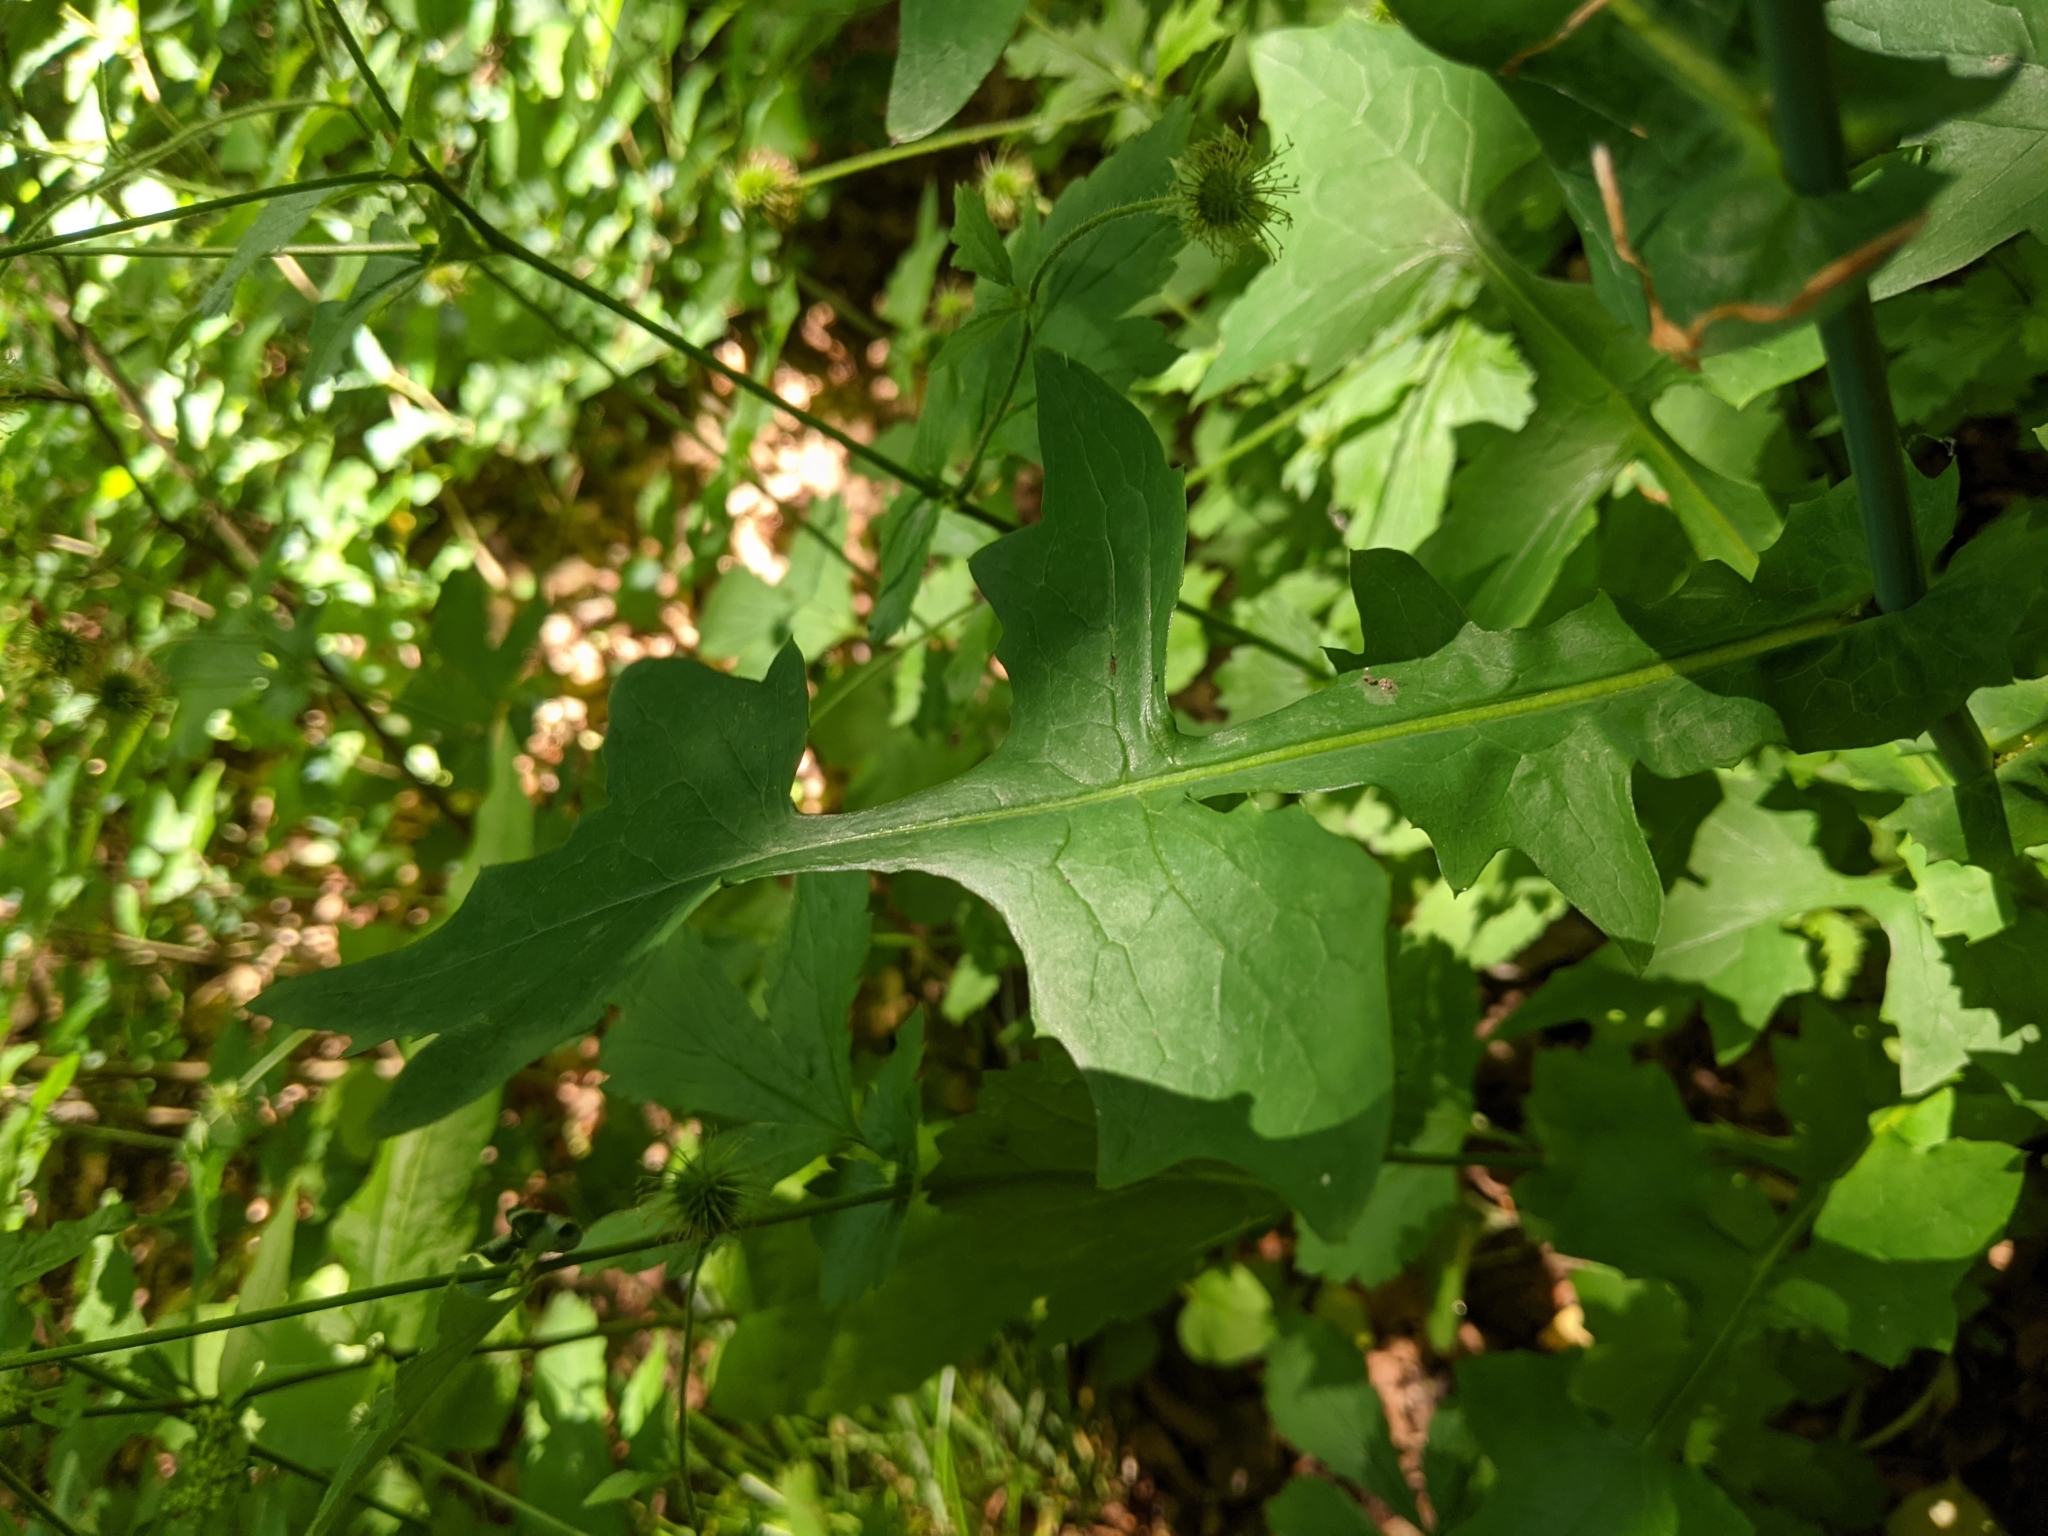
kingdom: Plantae
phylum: Tracheophyta
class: Magnoliopsida
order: Asterales
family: Asteraceae
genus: Mycelis
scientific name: Mycelis muralis
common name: Wall lettuce
